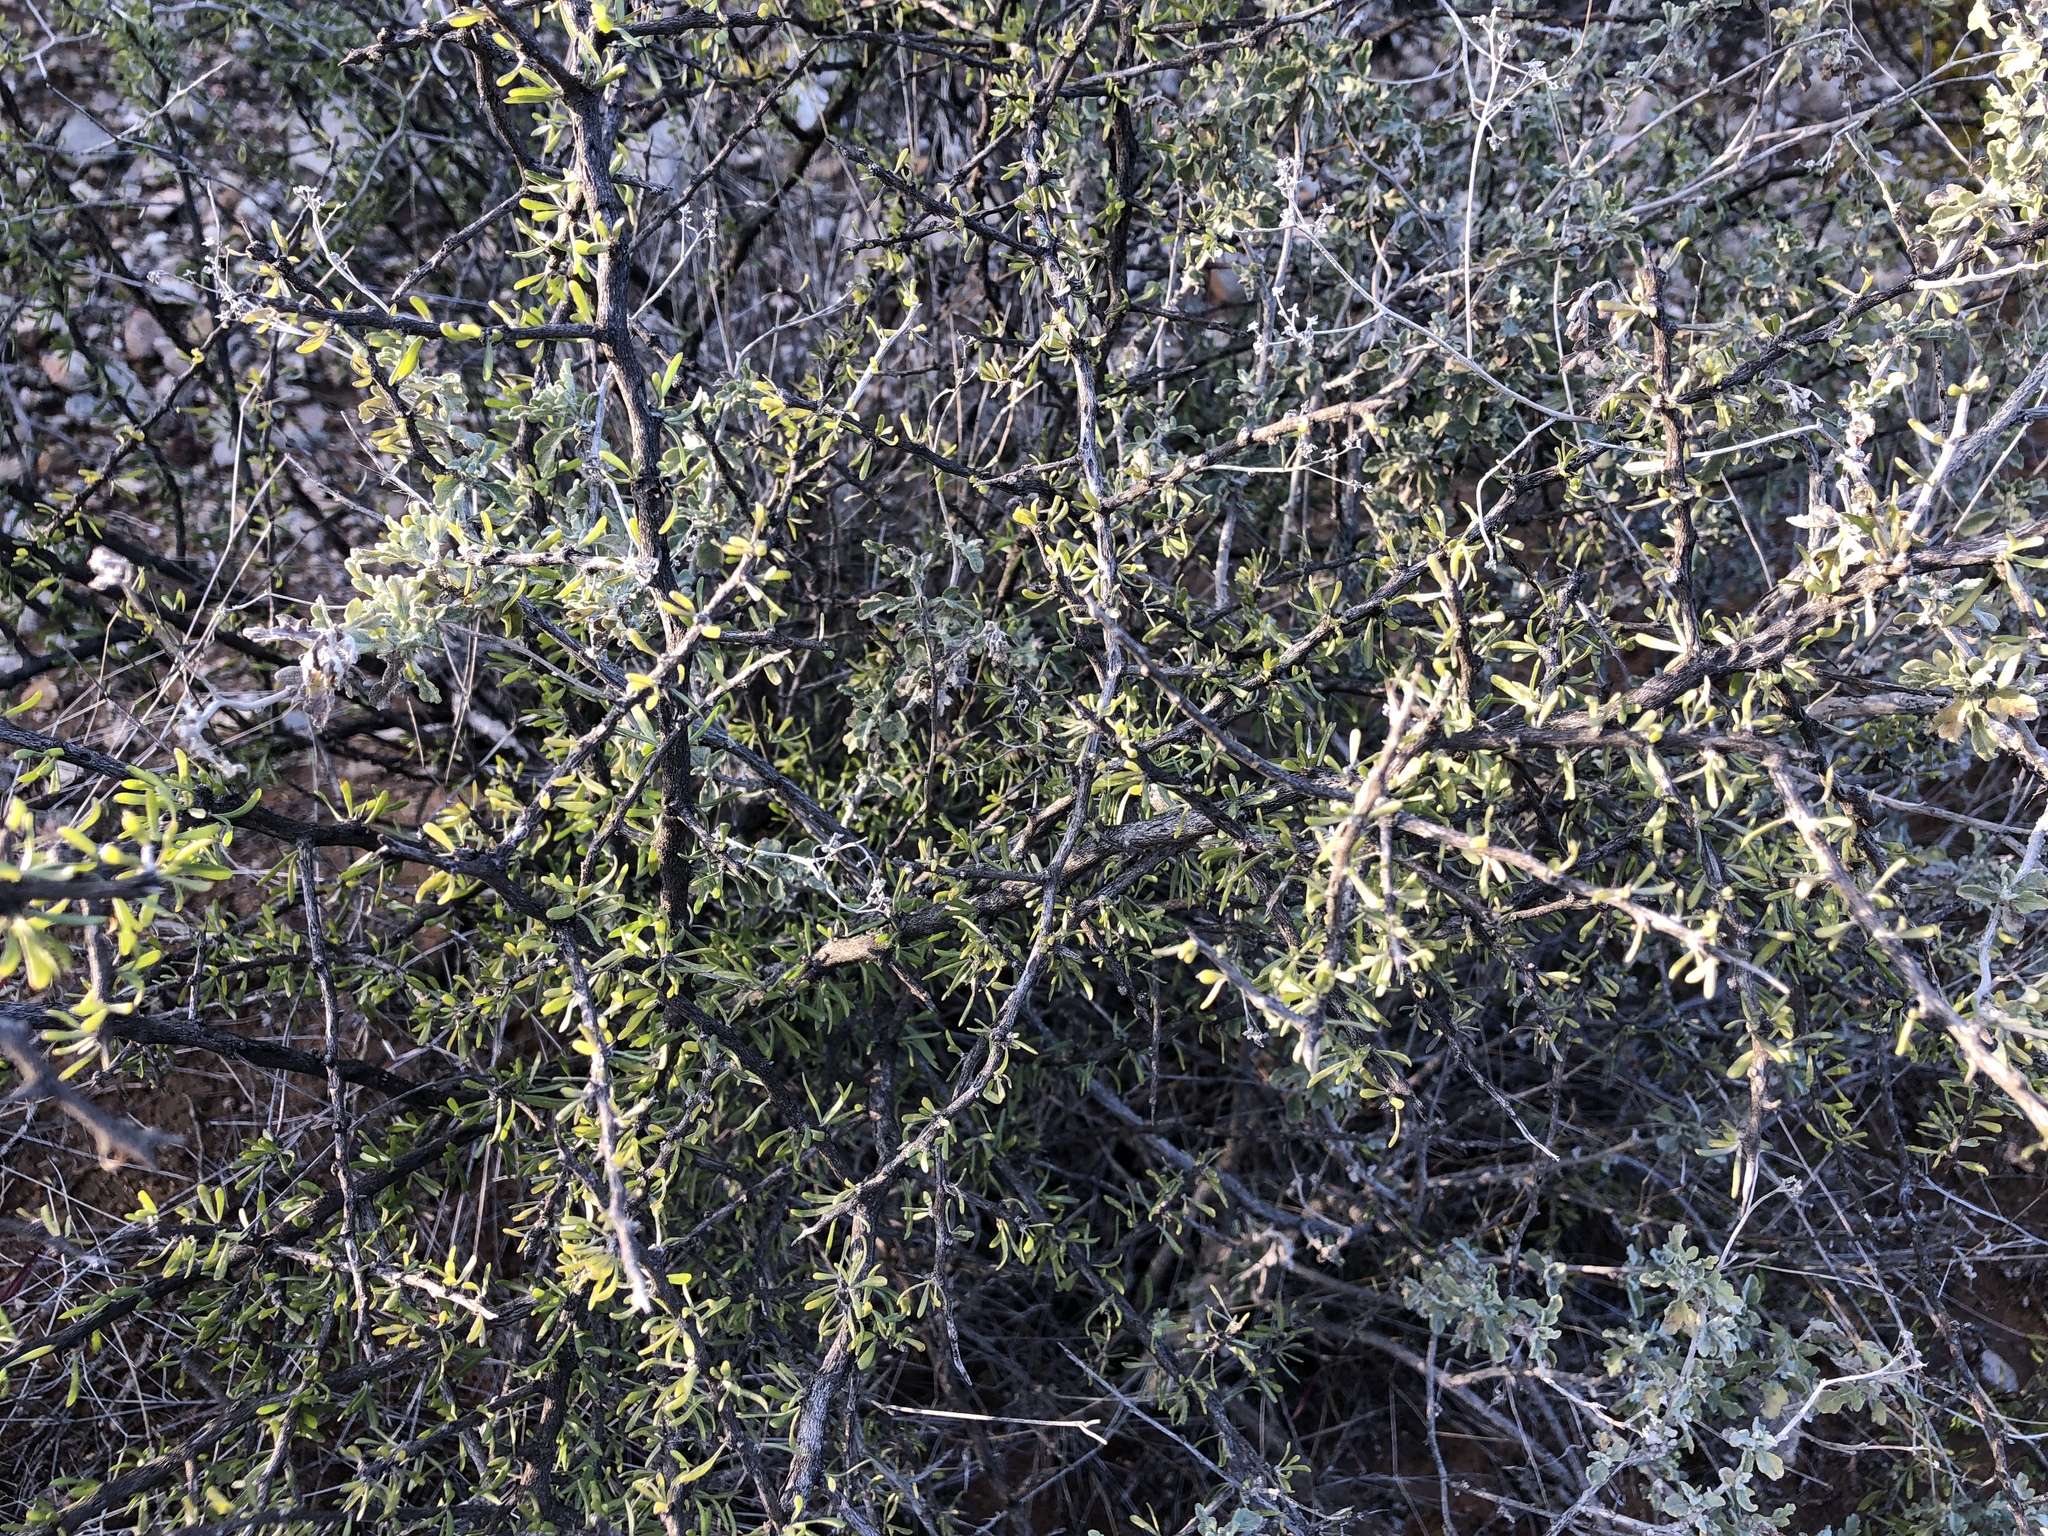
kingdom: Plantae
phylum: Tracheophyta
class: Magnoliopsida
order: Solanales
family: Solanaceae
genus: Lycium
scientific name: Lycium berlandieri
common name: Berlandier wolfberry
